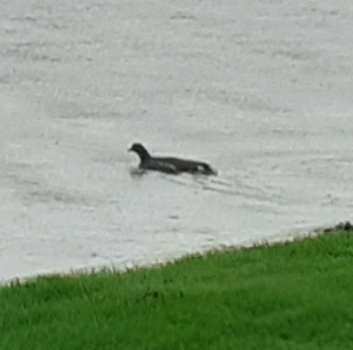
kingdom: Animalia
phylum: Chordata
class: Aves
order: Gruiformes
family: Rallidae
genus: Gallinula
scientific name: Gallinula chloropus
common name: Common moorhen
